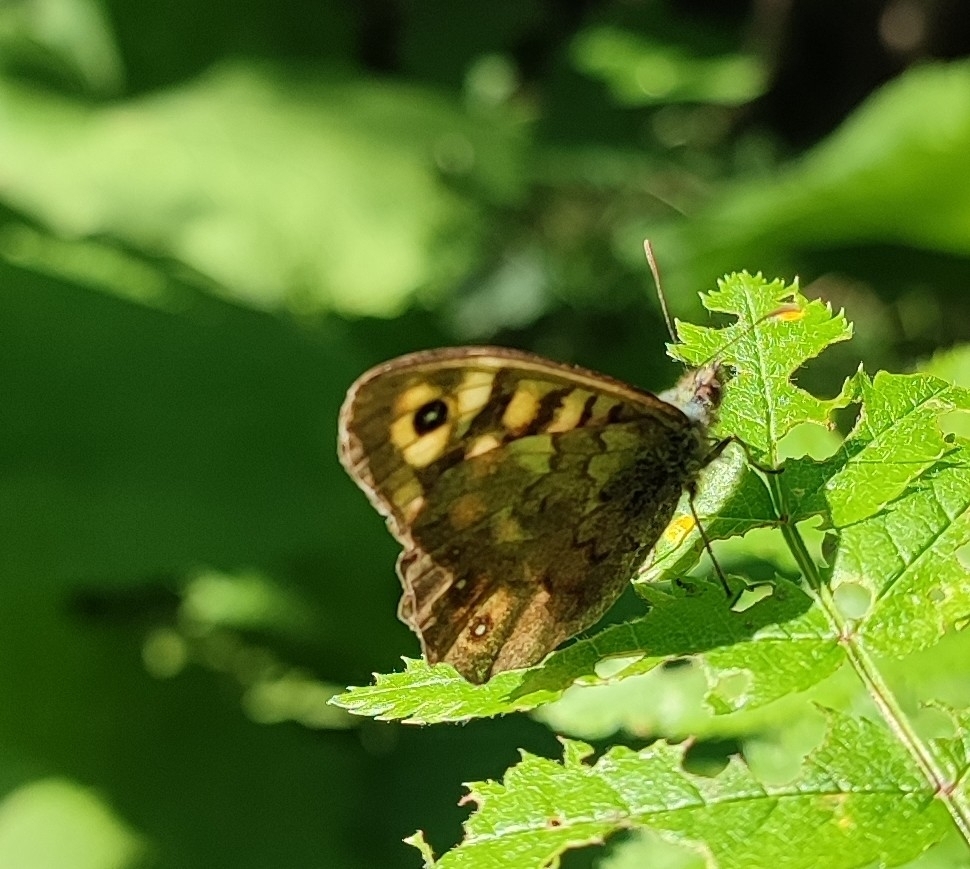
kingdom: Animalia
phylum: Arthropoda
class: Insecta
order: Lepidoptera
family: Nymphalidae
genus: Pararge
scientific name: Pararge aegeria
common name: Speckled wood
